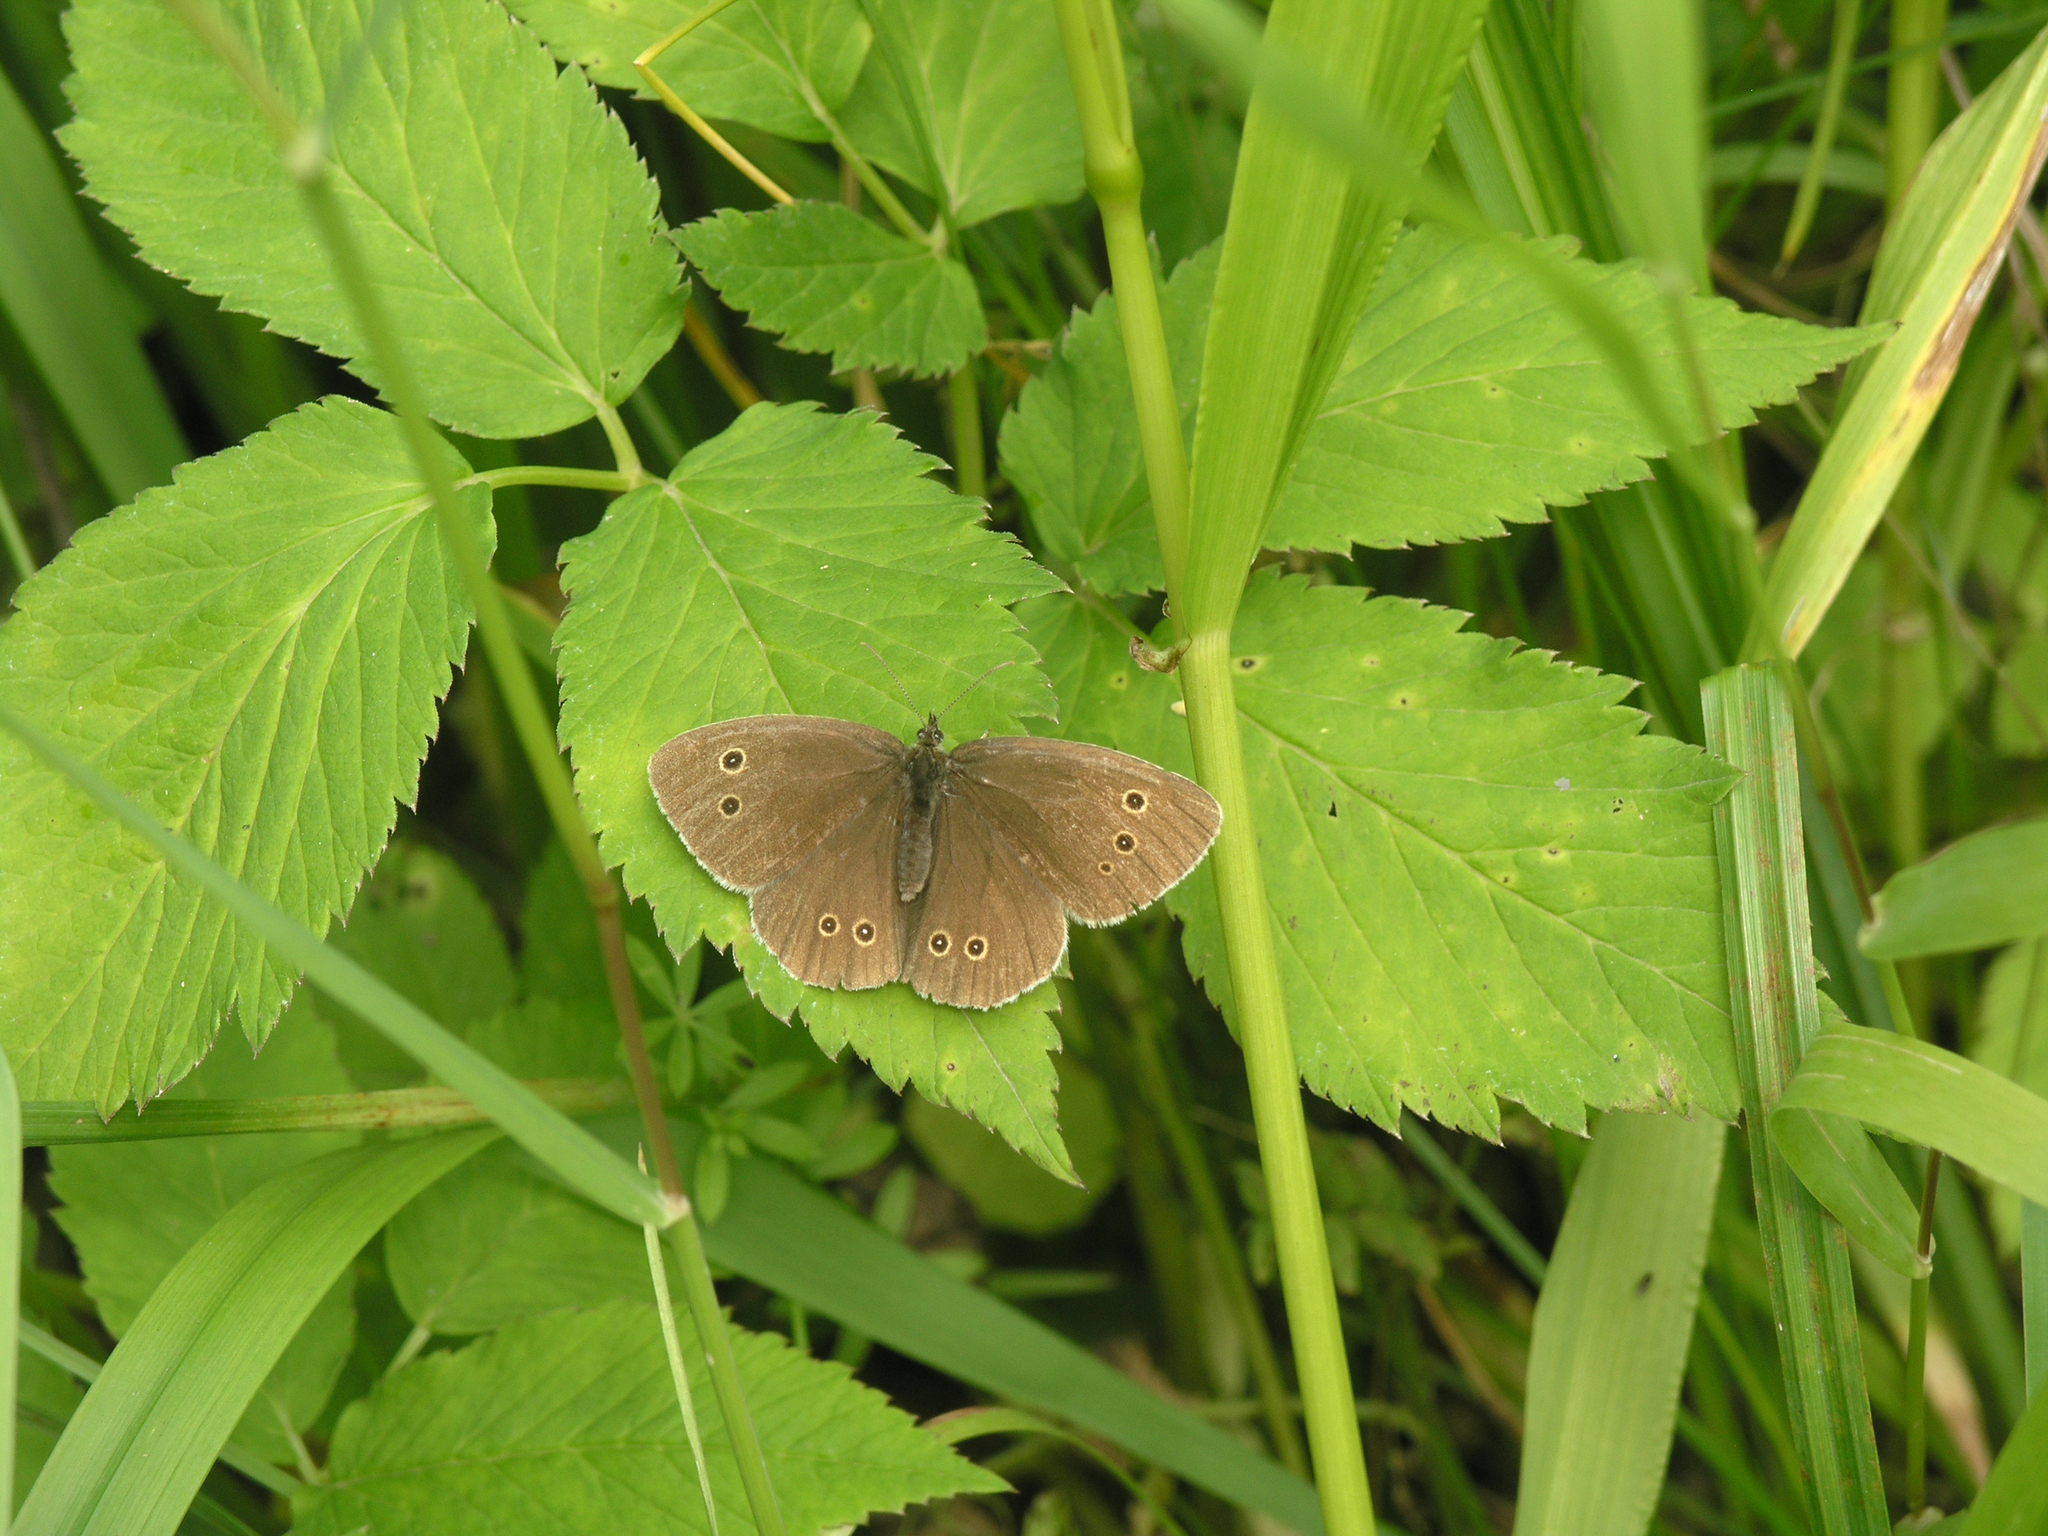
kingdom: Animalia
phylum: Arthropoda
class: Insecta
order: Lepidoptera
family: Nymphalidae
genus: Aphantopus
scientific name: Aphantopus hyperantus
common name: Ringlet
